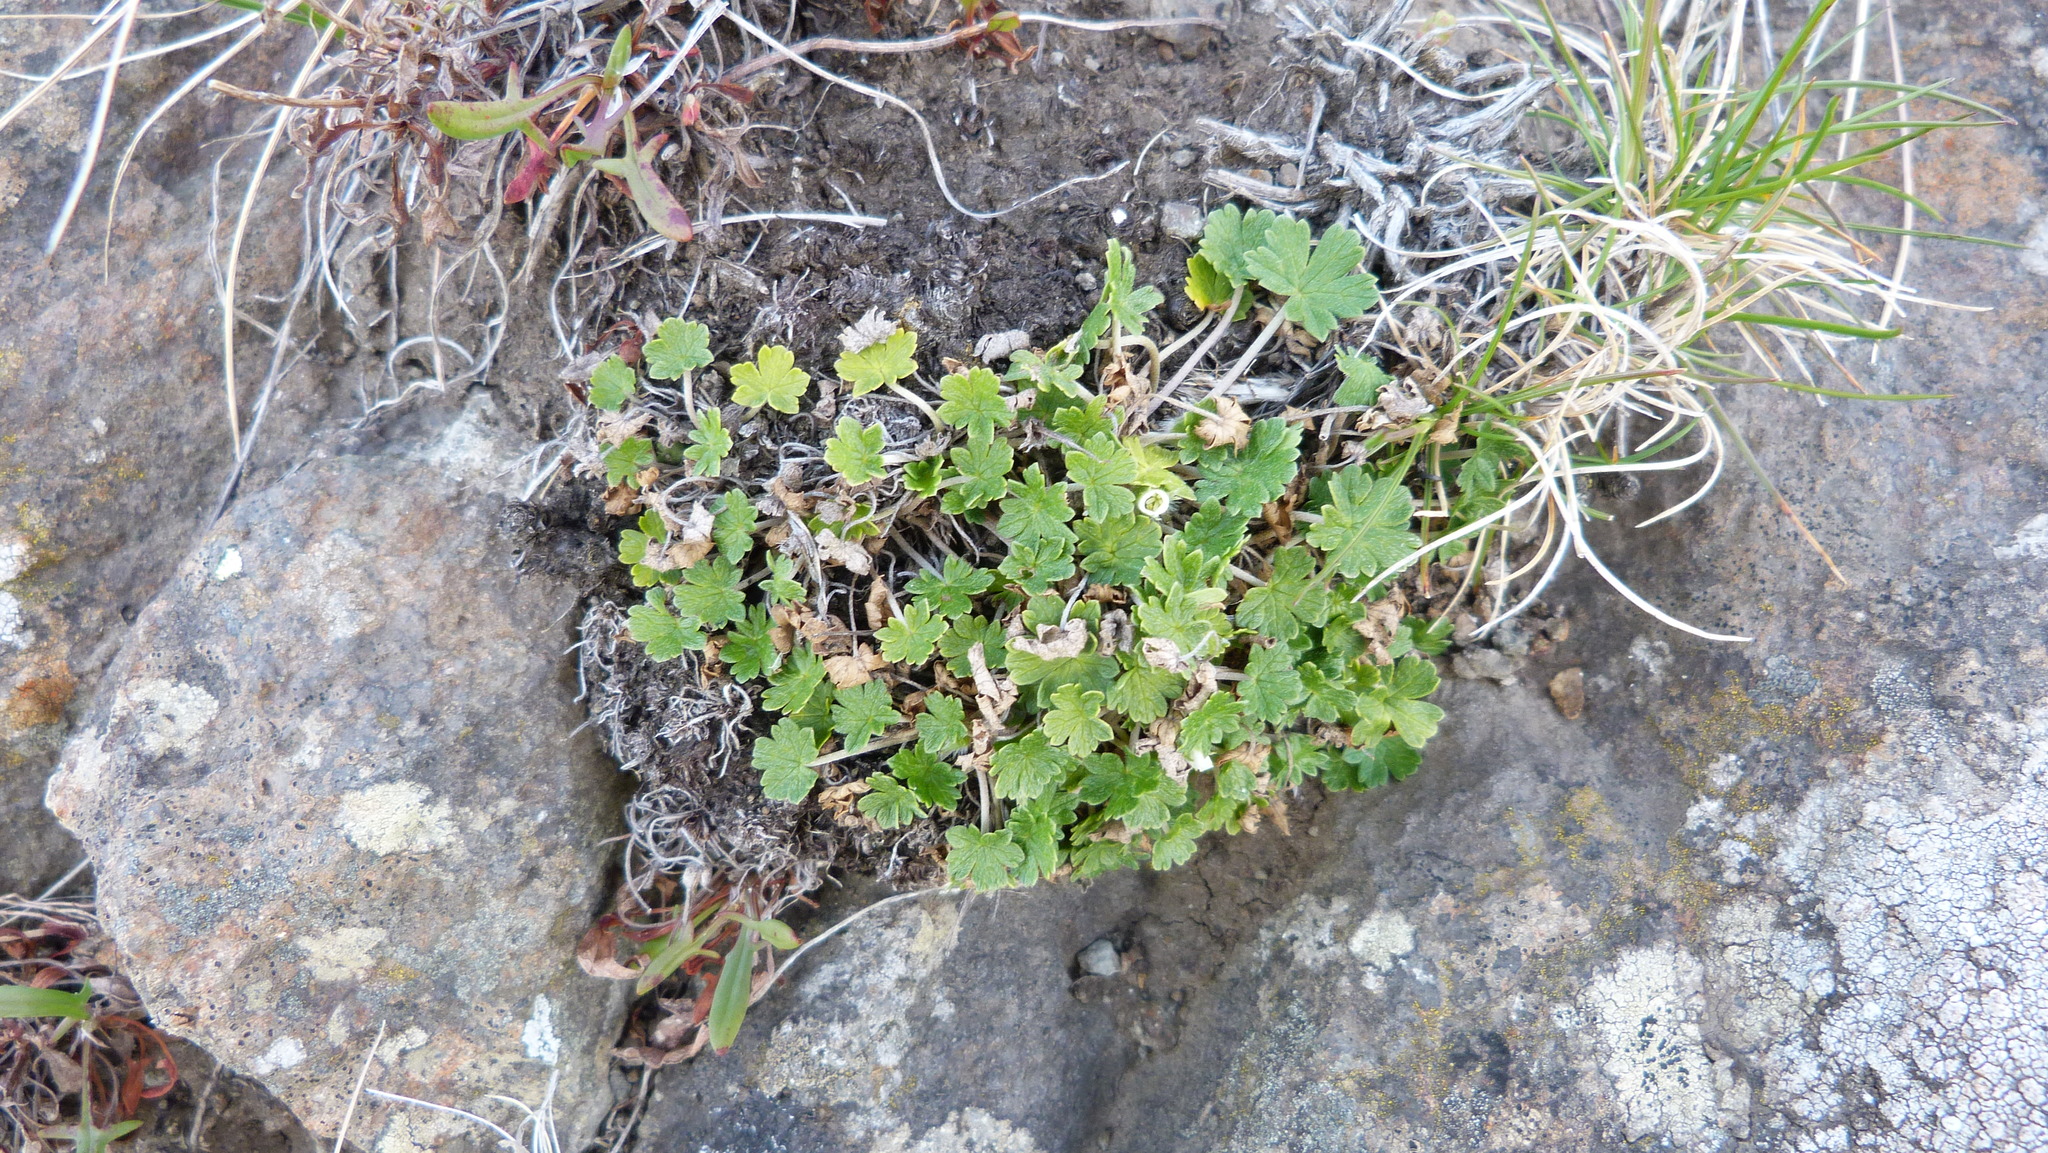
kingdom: Plantae
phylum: Tracheophyta
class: Magnoliopsida
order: Geraniales
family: Geraniaceae
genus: Geranium
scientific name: Geranium brevicaule
